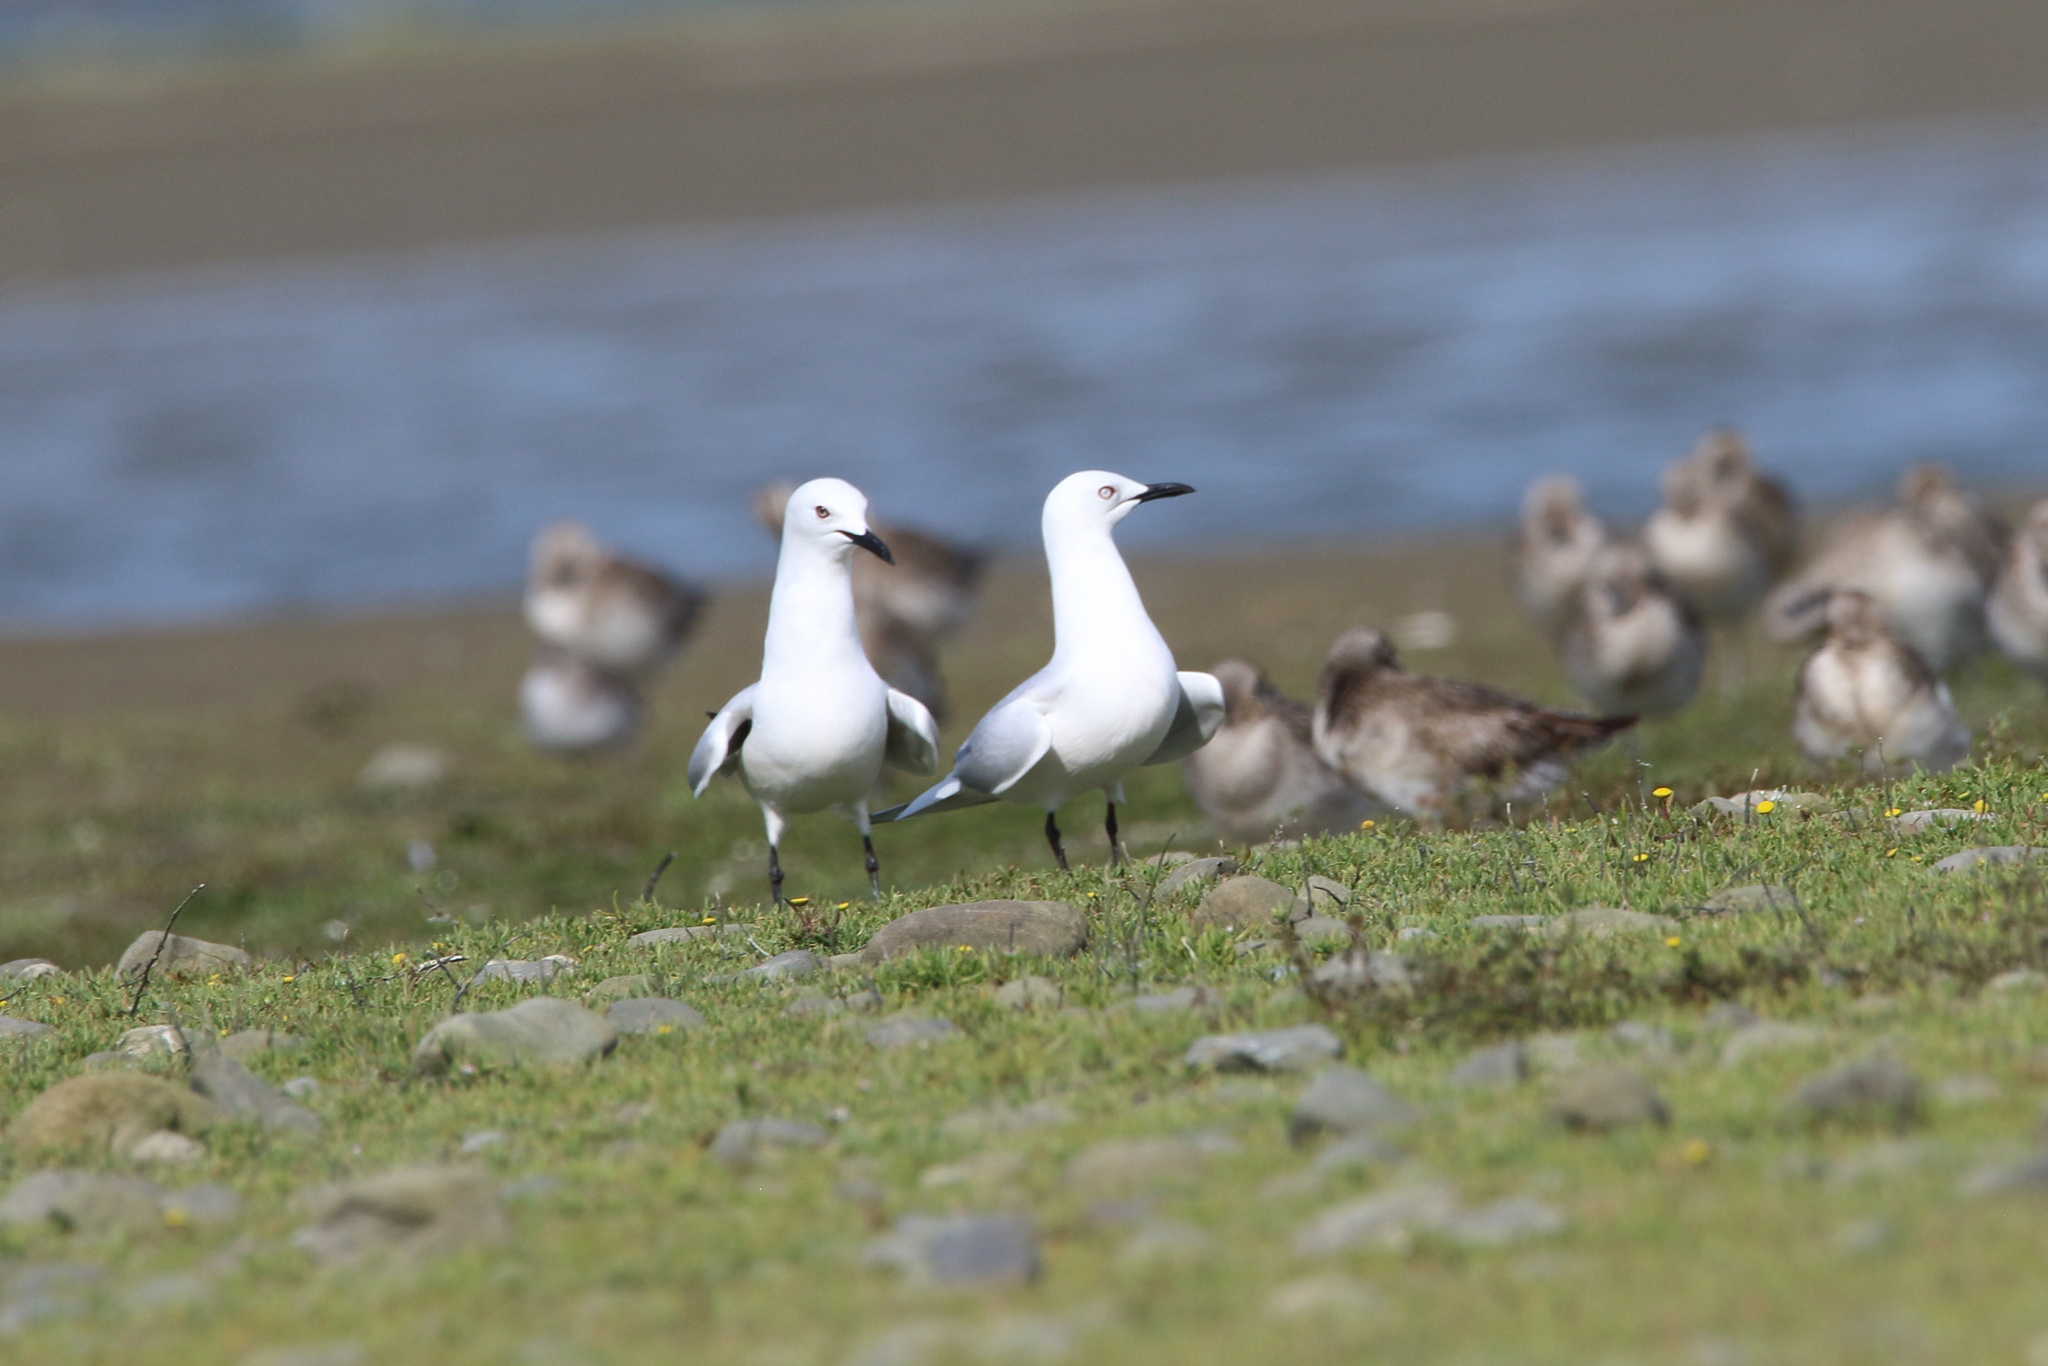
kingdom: Animalia
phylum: Chordata
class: Aves
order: Charadriiformes
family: Laridae
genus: Chroicocephalus
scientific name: Chroicocephalus bulleri
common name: Black-billed gull
